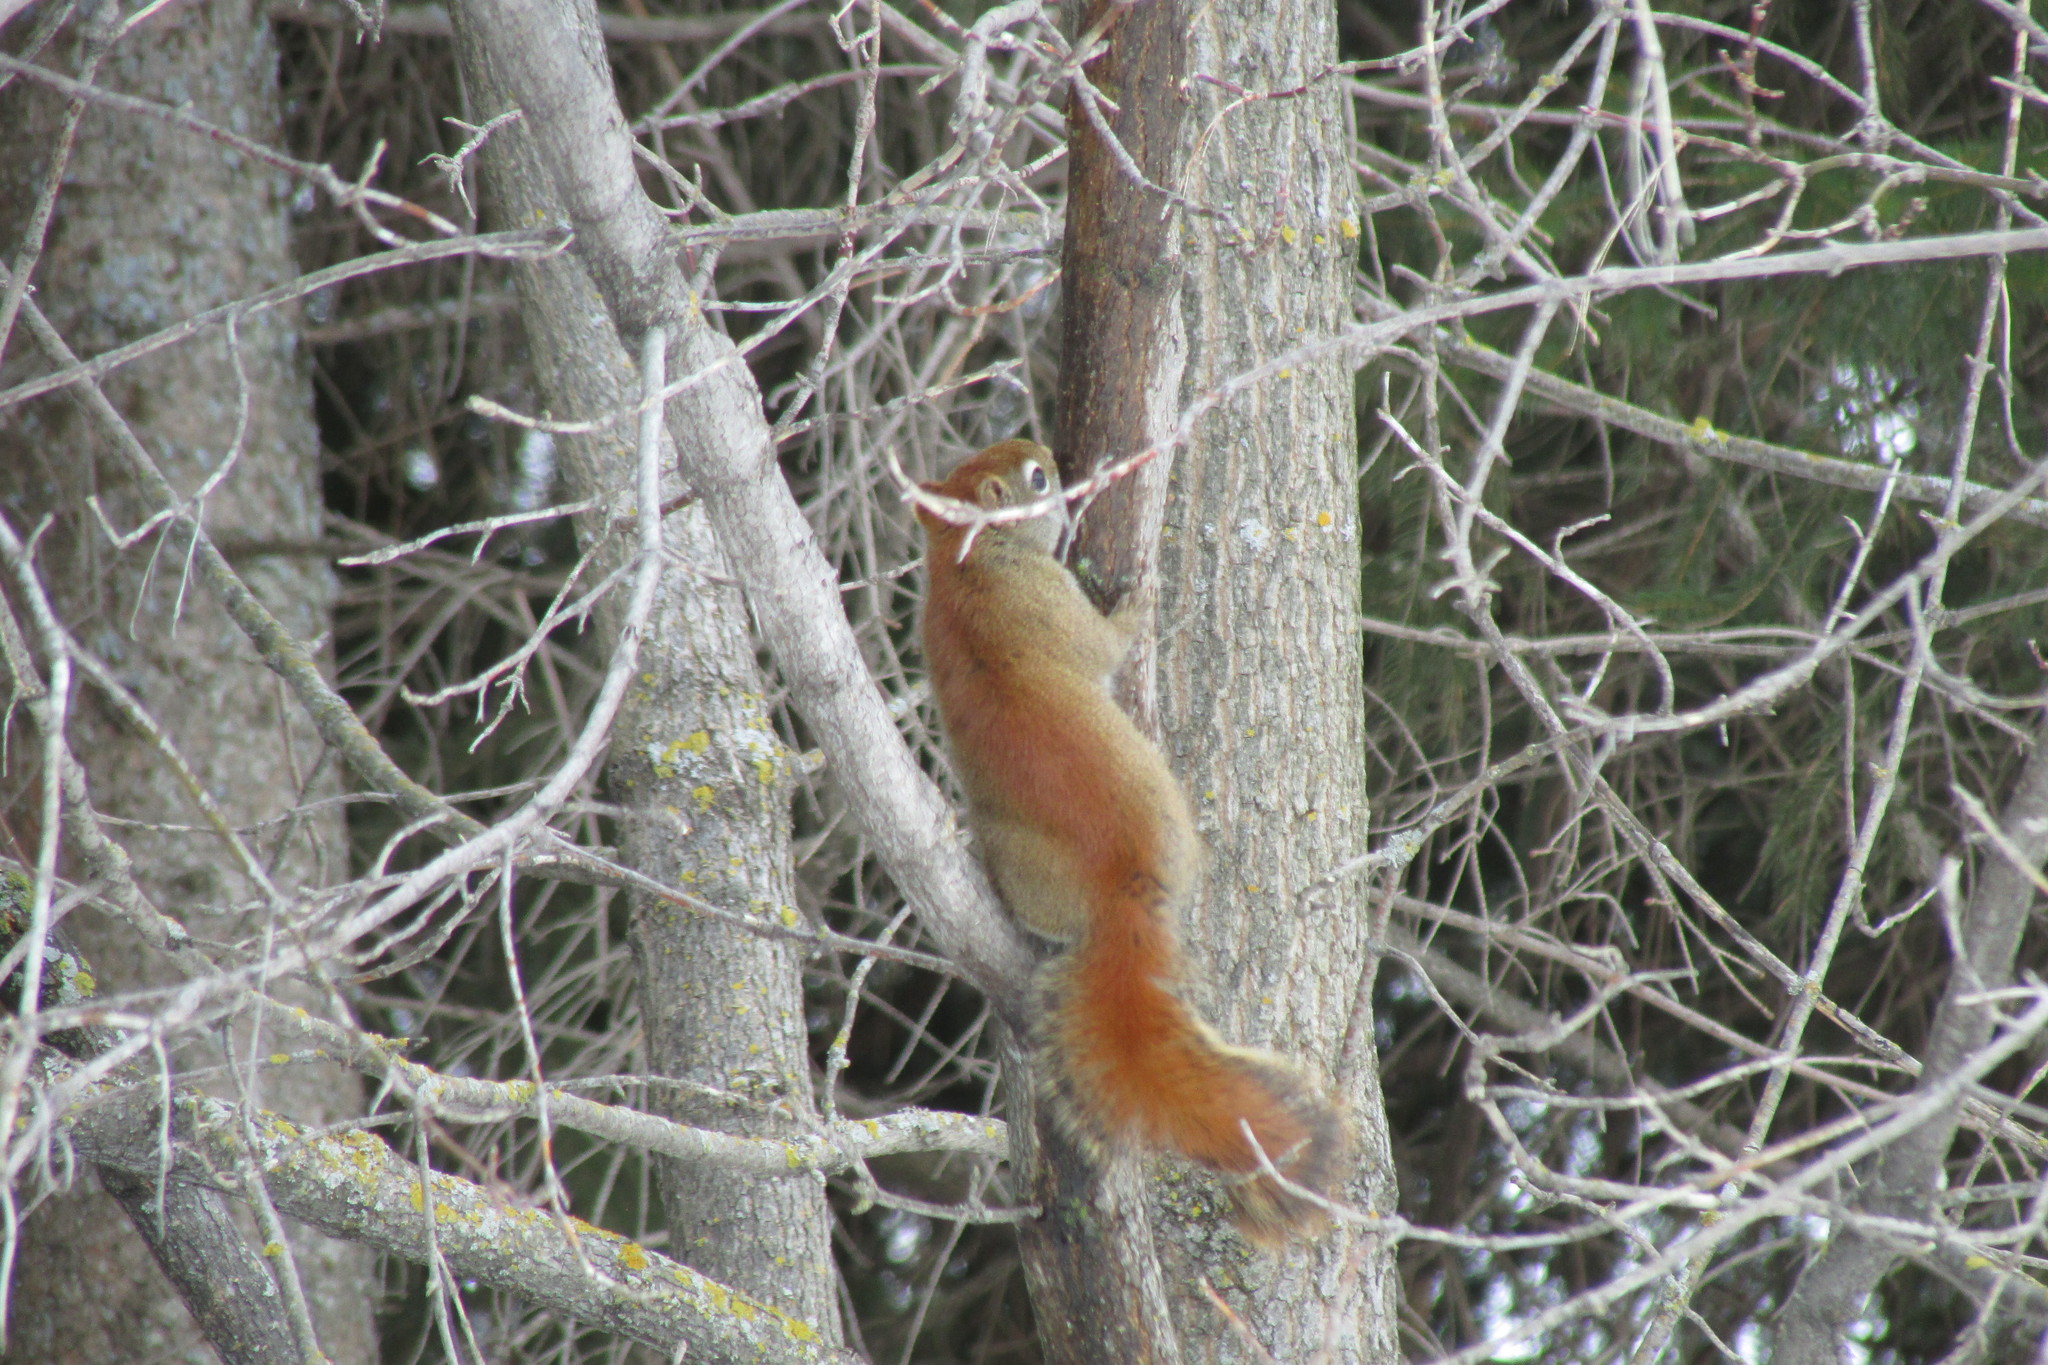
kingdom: Animalia
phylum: Chordata
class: Mammalia
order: Rodentia
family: Sciuridae
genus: Tamiasciurus
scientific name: Tamiasciurus hudsonicus
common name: Red squirrel
